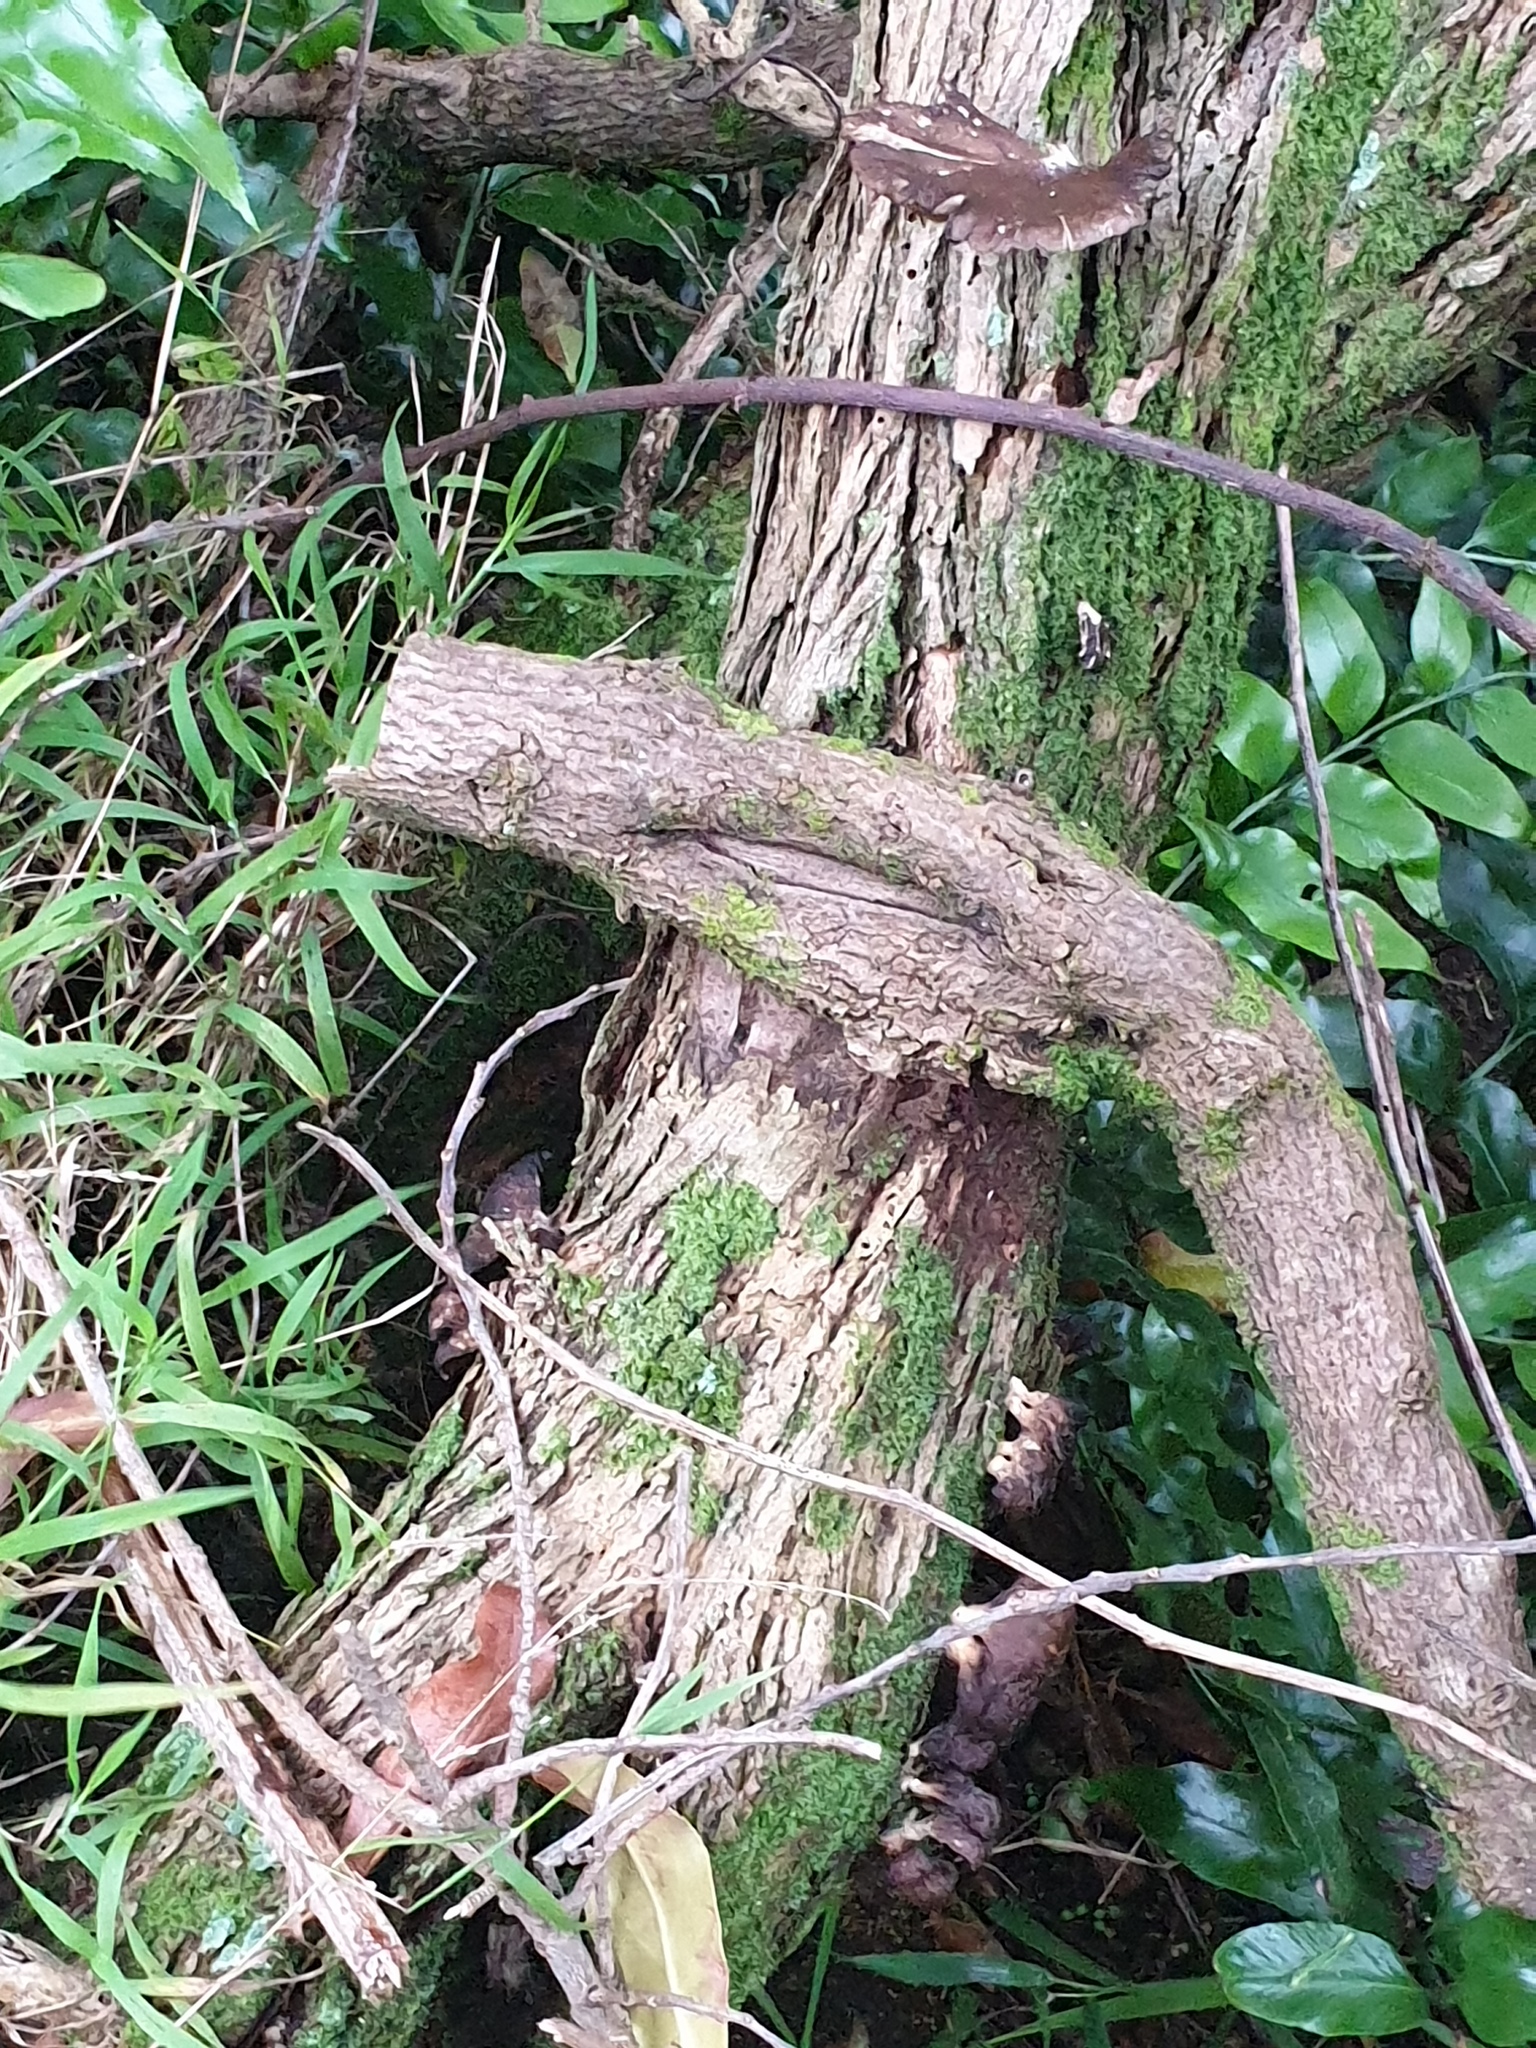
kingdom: Fungi
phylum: Basidiomycota
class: Agaricomycetes
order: Agaricales
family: Pleurotaceae
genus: Pleurotus
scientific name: Pleurotus purpureo-olivaceus
